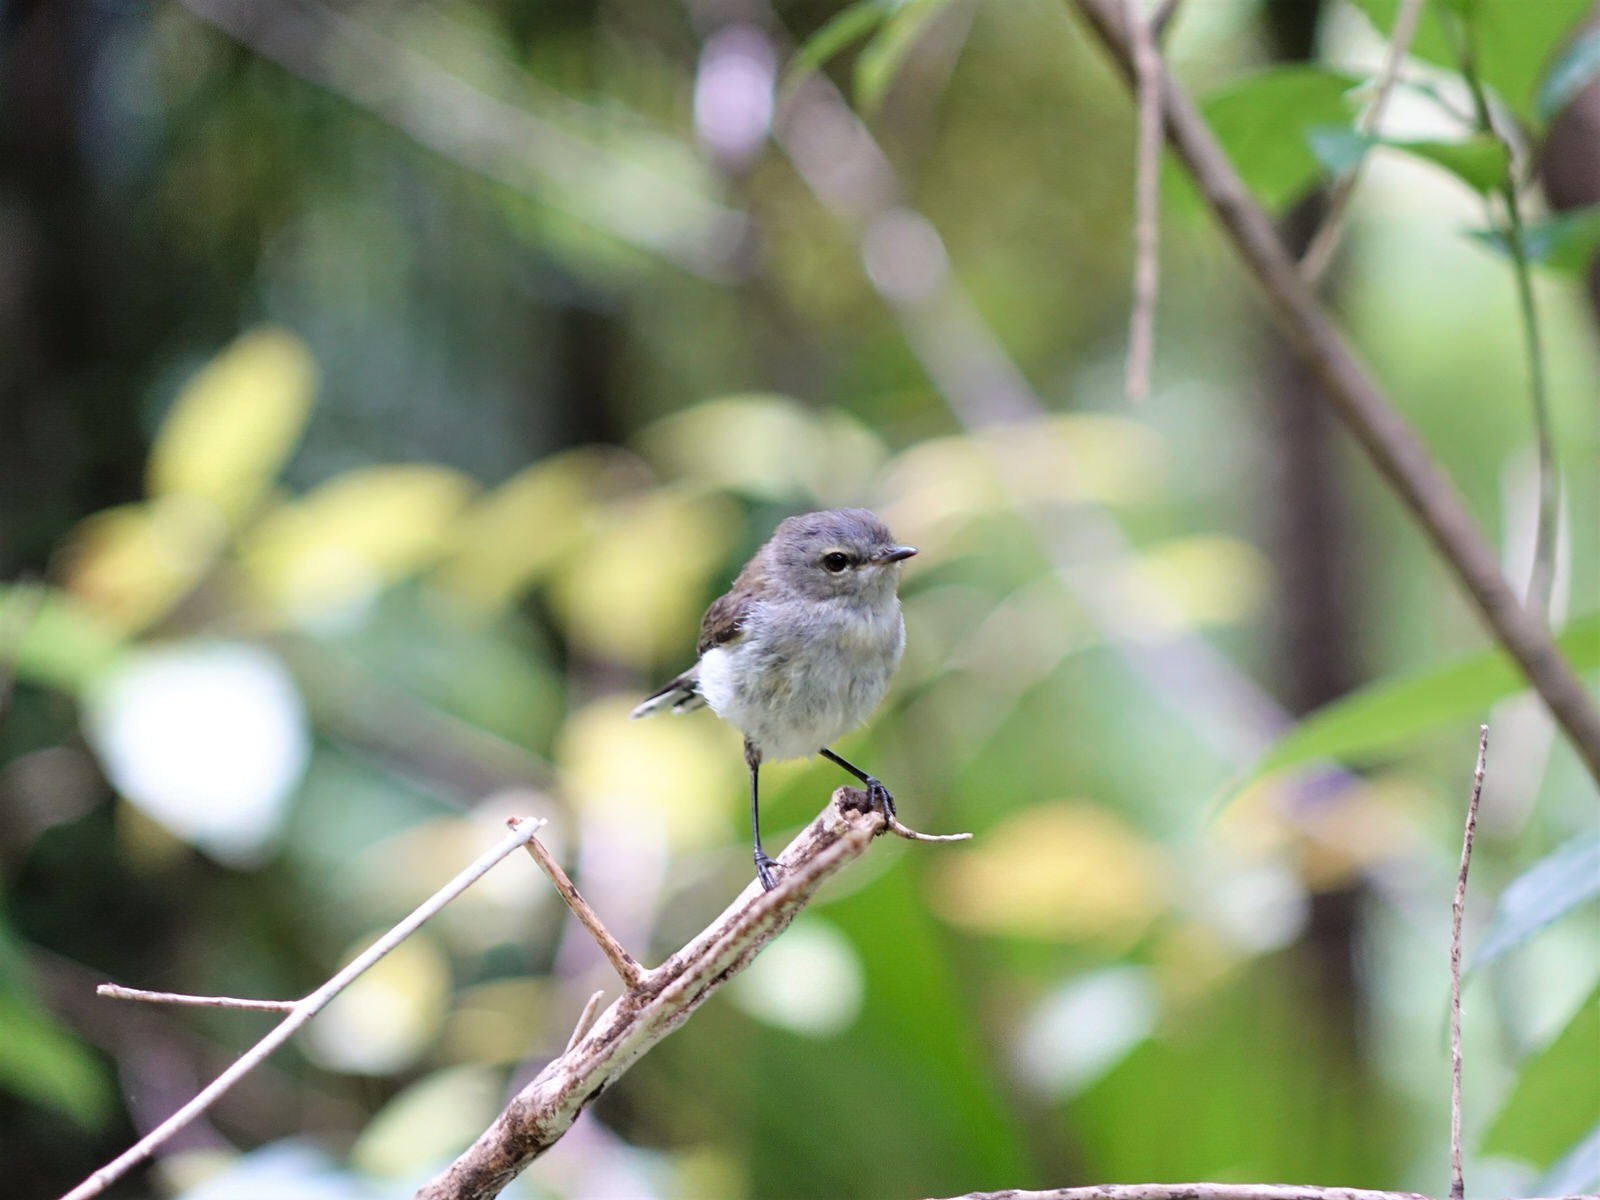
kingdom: Animalia
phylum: Chordata
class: Aves
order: Passeriformes
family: Acanthizidae
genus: Gerygone
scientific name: Gerygone igata
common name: Grey gerygone
